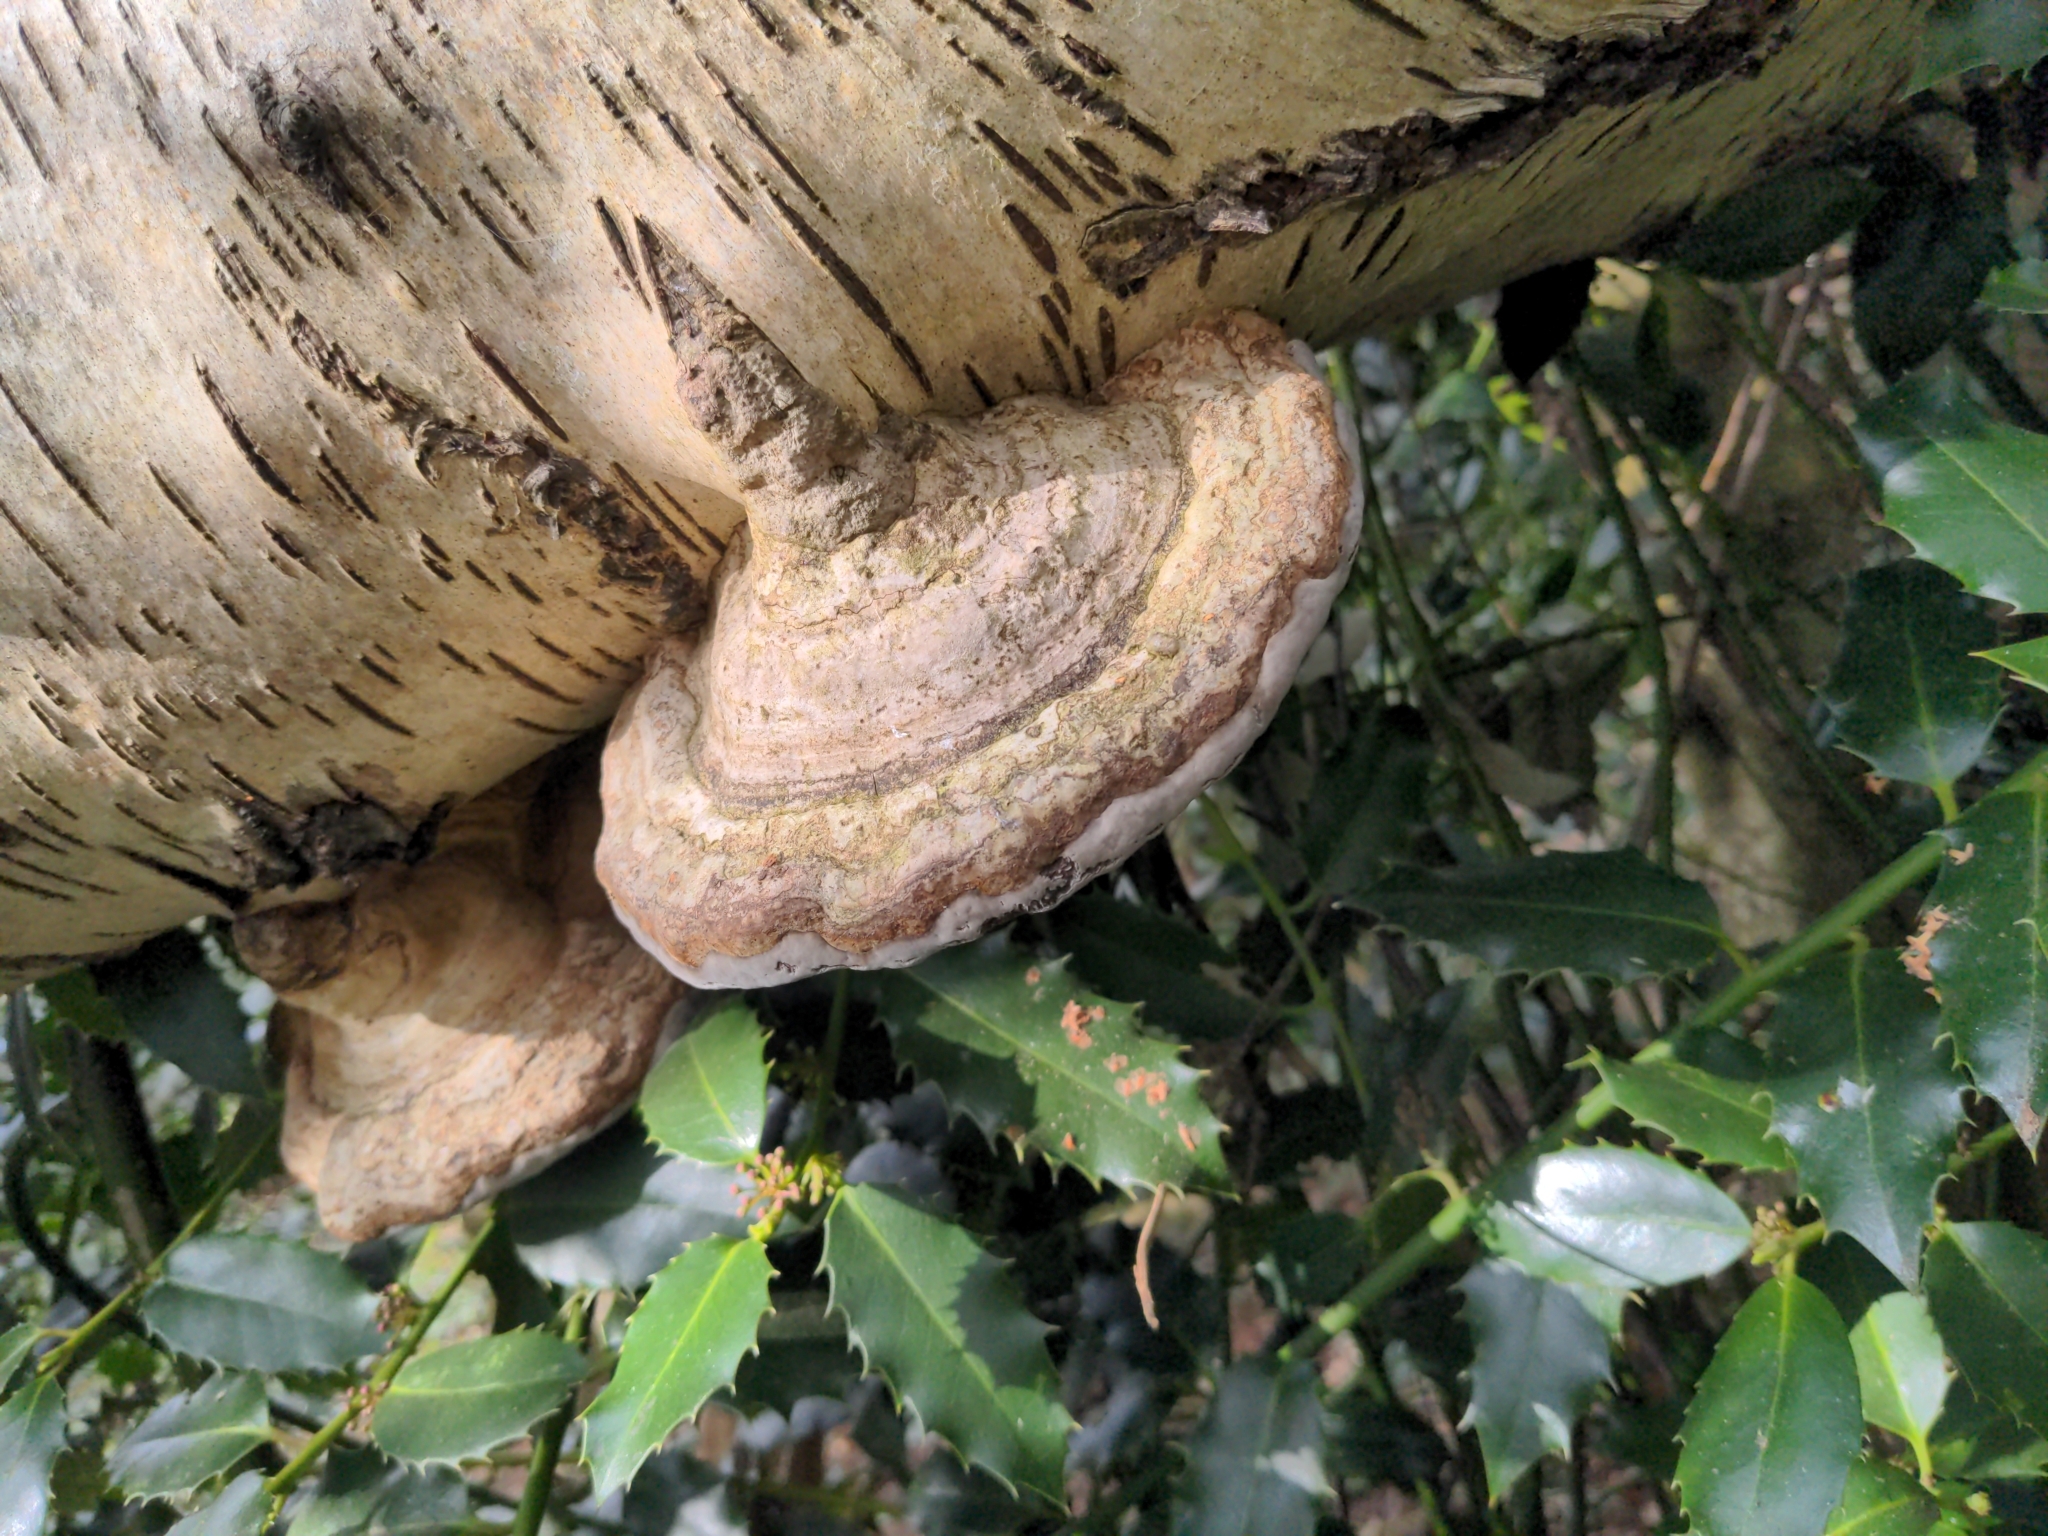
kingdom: Fungi
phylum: Basidiomycota
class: Agaricomycetes
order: Polyporales
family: Polyporaceae
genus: Fomes
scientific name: Fomes fomentarius
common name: Hoof fungus
